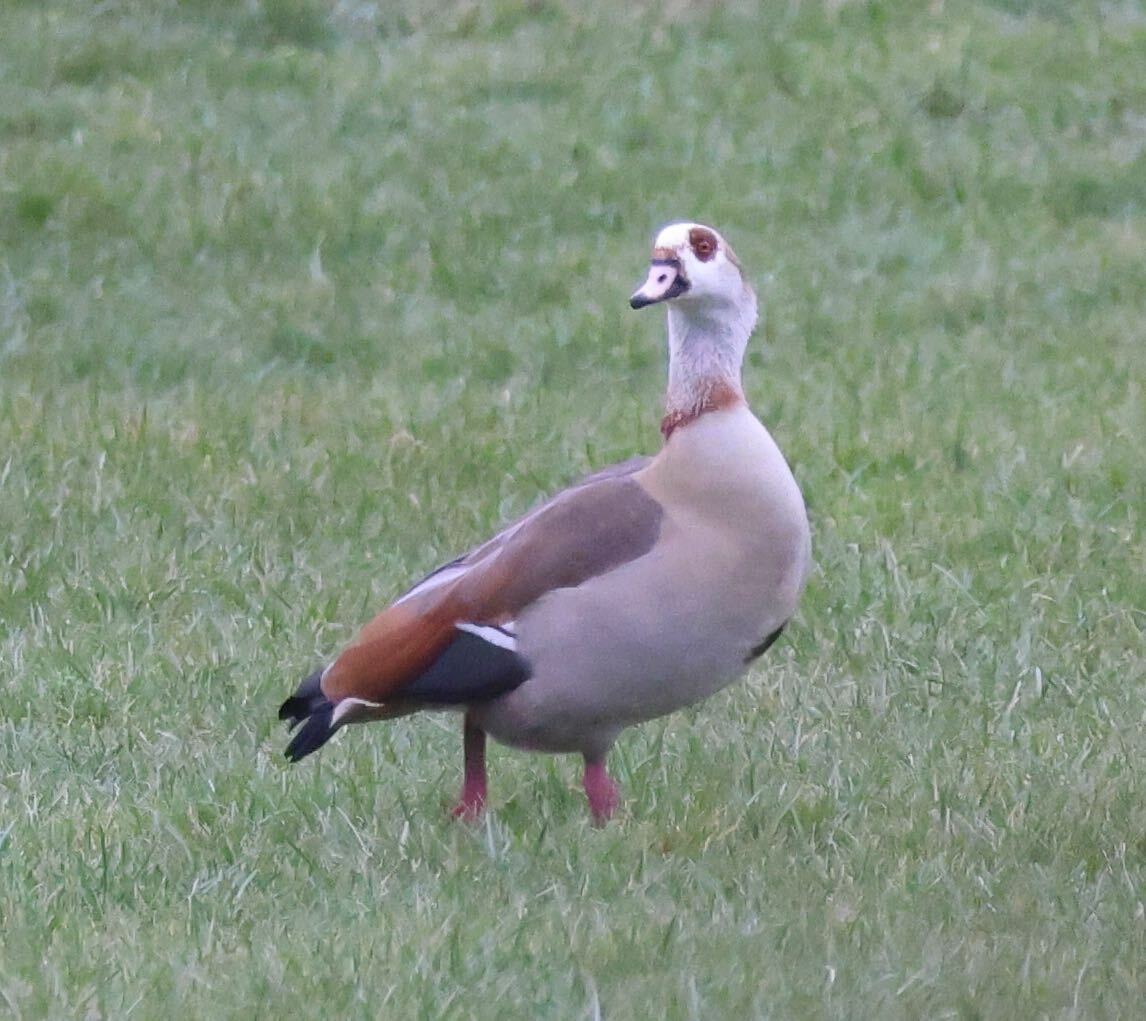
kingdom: Animalia
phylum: Chordata
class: Aves
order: Anseriformes
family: Anatidae
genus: Alopochen
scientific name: Alopochen aegyptiaca
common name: Egyptian goose
